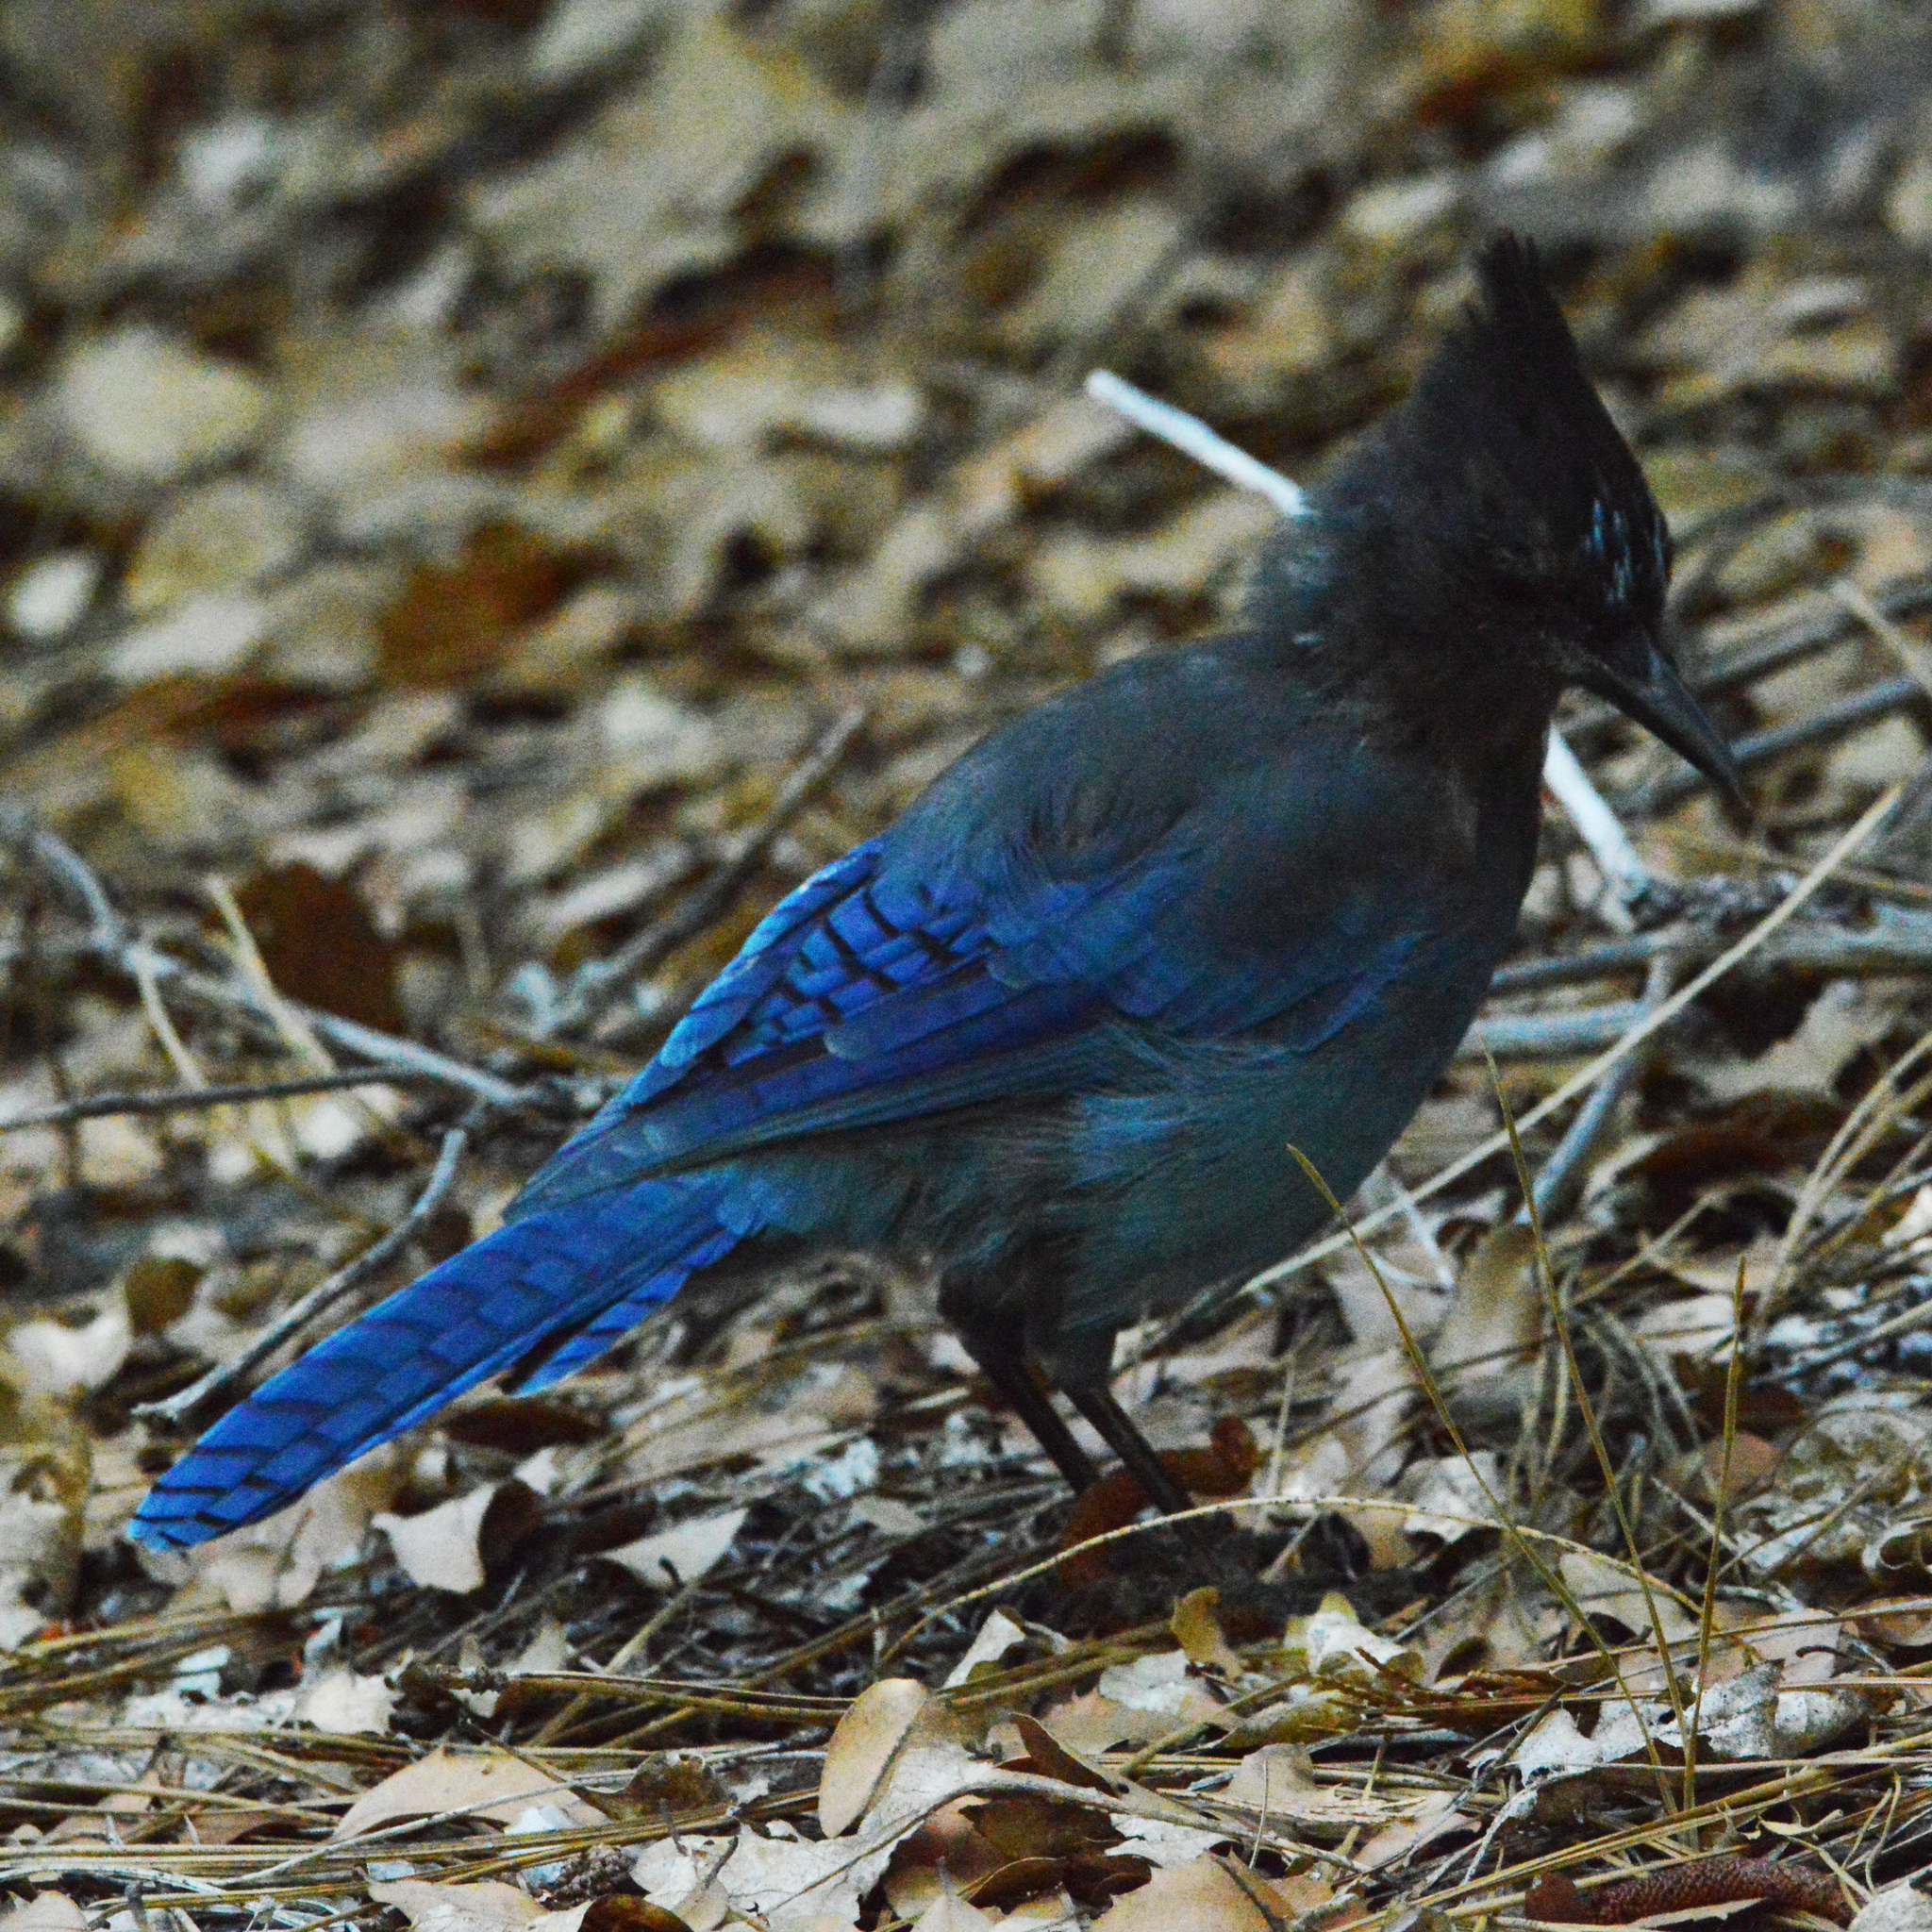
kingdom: Animalia
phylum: Chordata
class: Aves
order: Passeriformes
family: Corvidae
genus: Cyanocitta
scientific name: Cyanocitta stelleri
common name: Steller's jay
